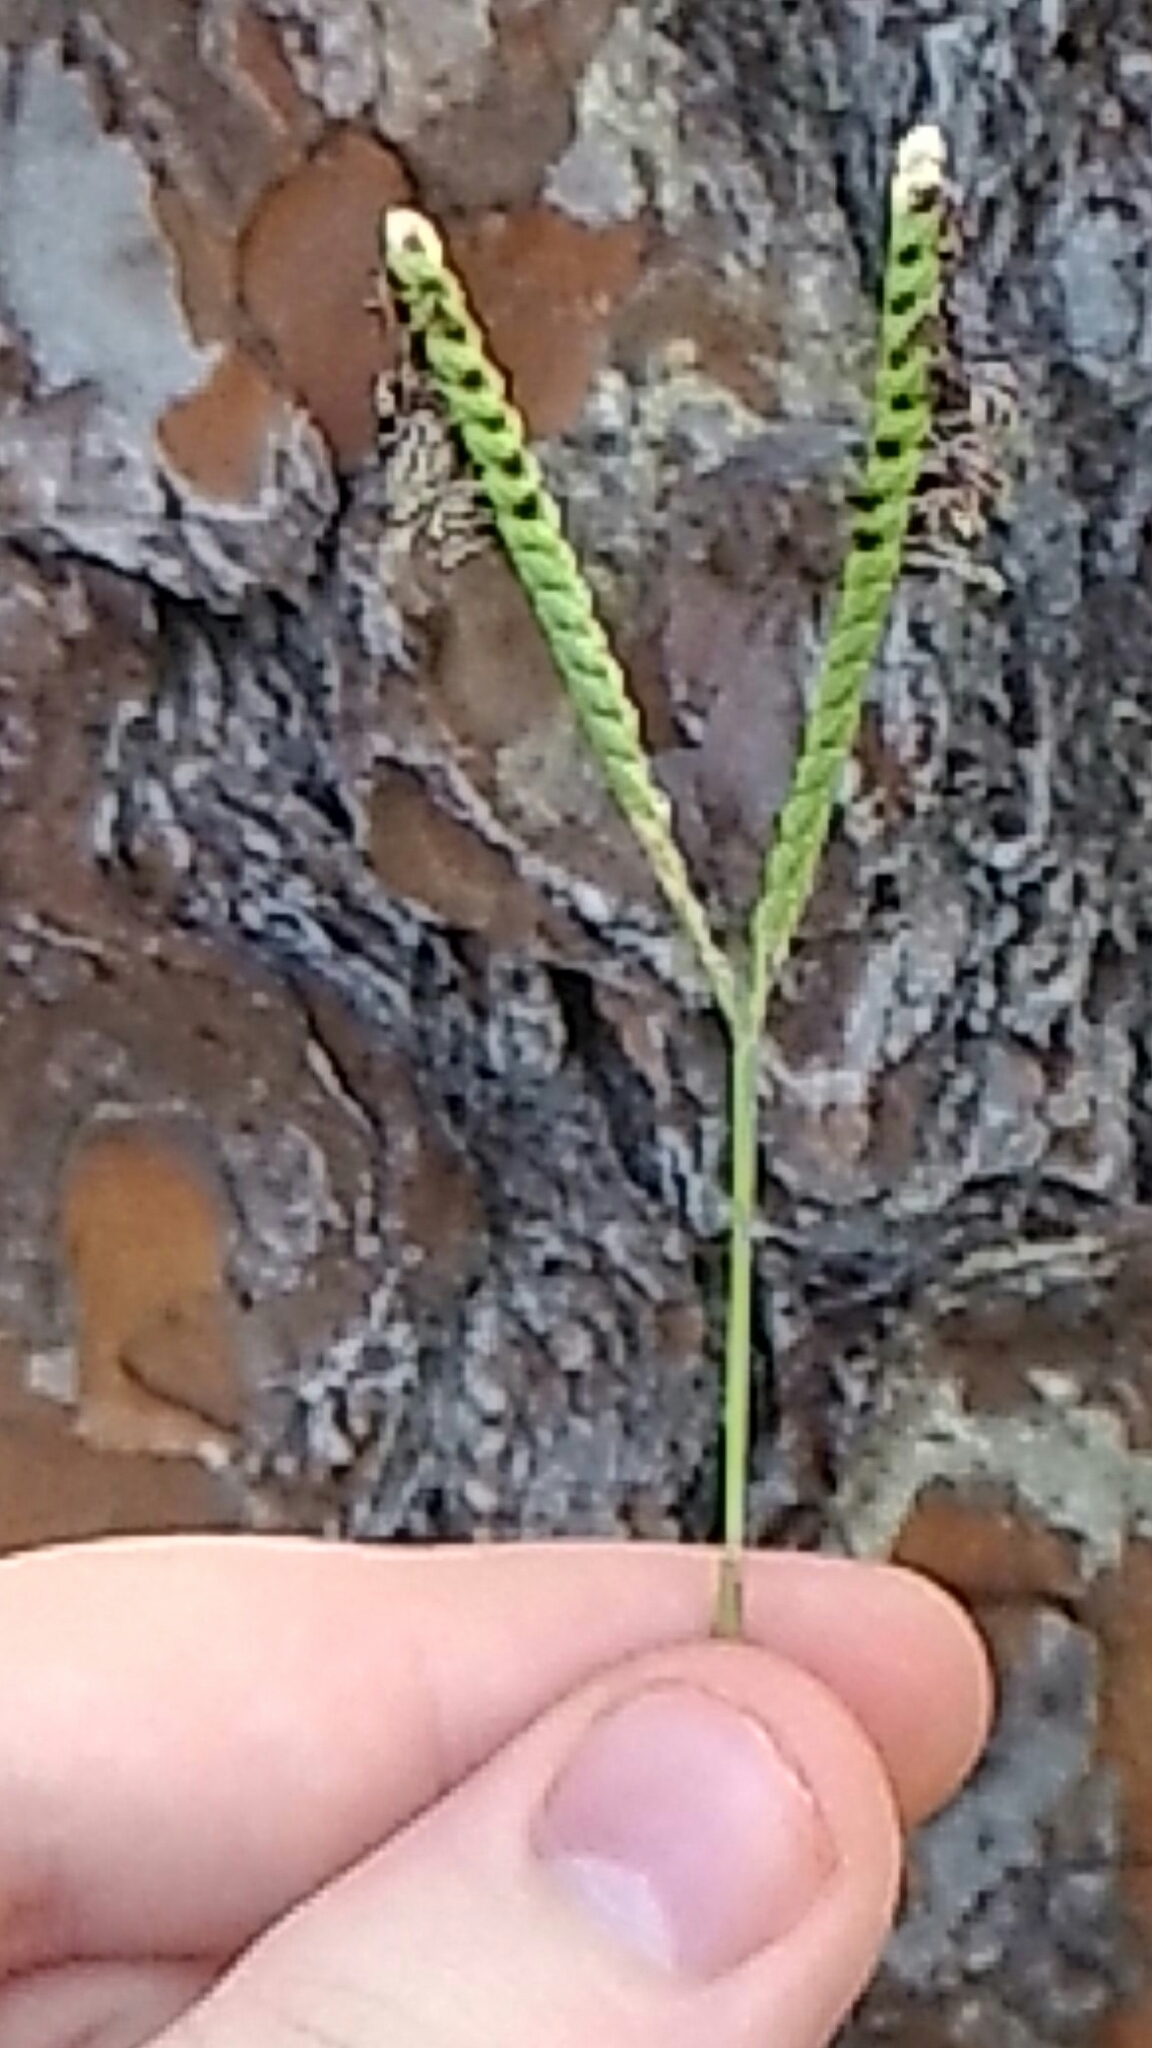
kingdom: Plantae
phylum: Tracheophyta
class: Liliopsida
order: Poales
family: Poaceae
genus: Paspalum
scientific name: Paspalum notatum
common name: Bahiagrass
